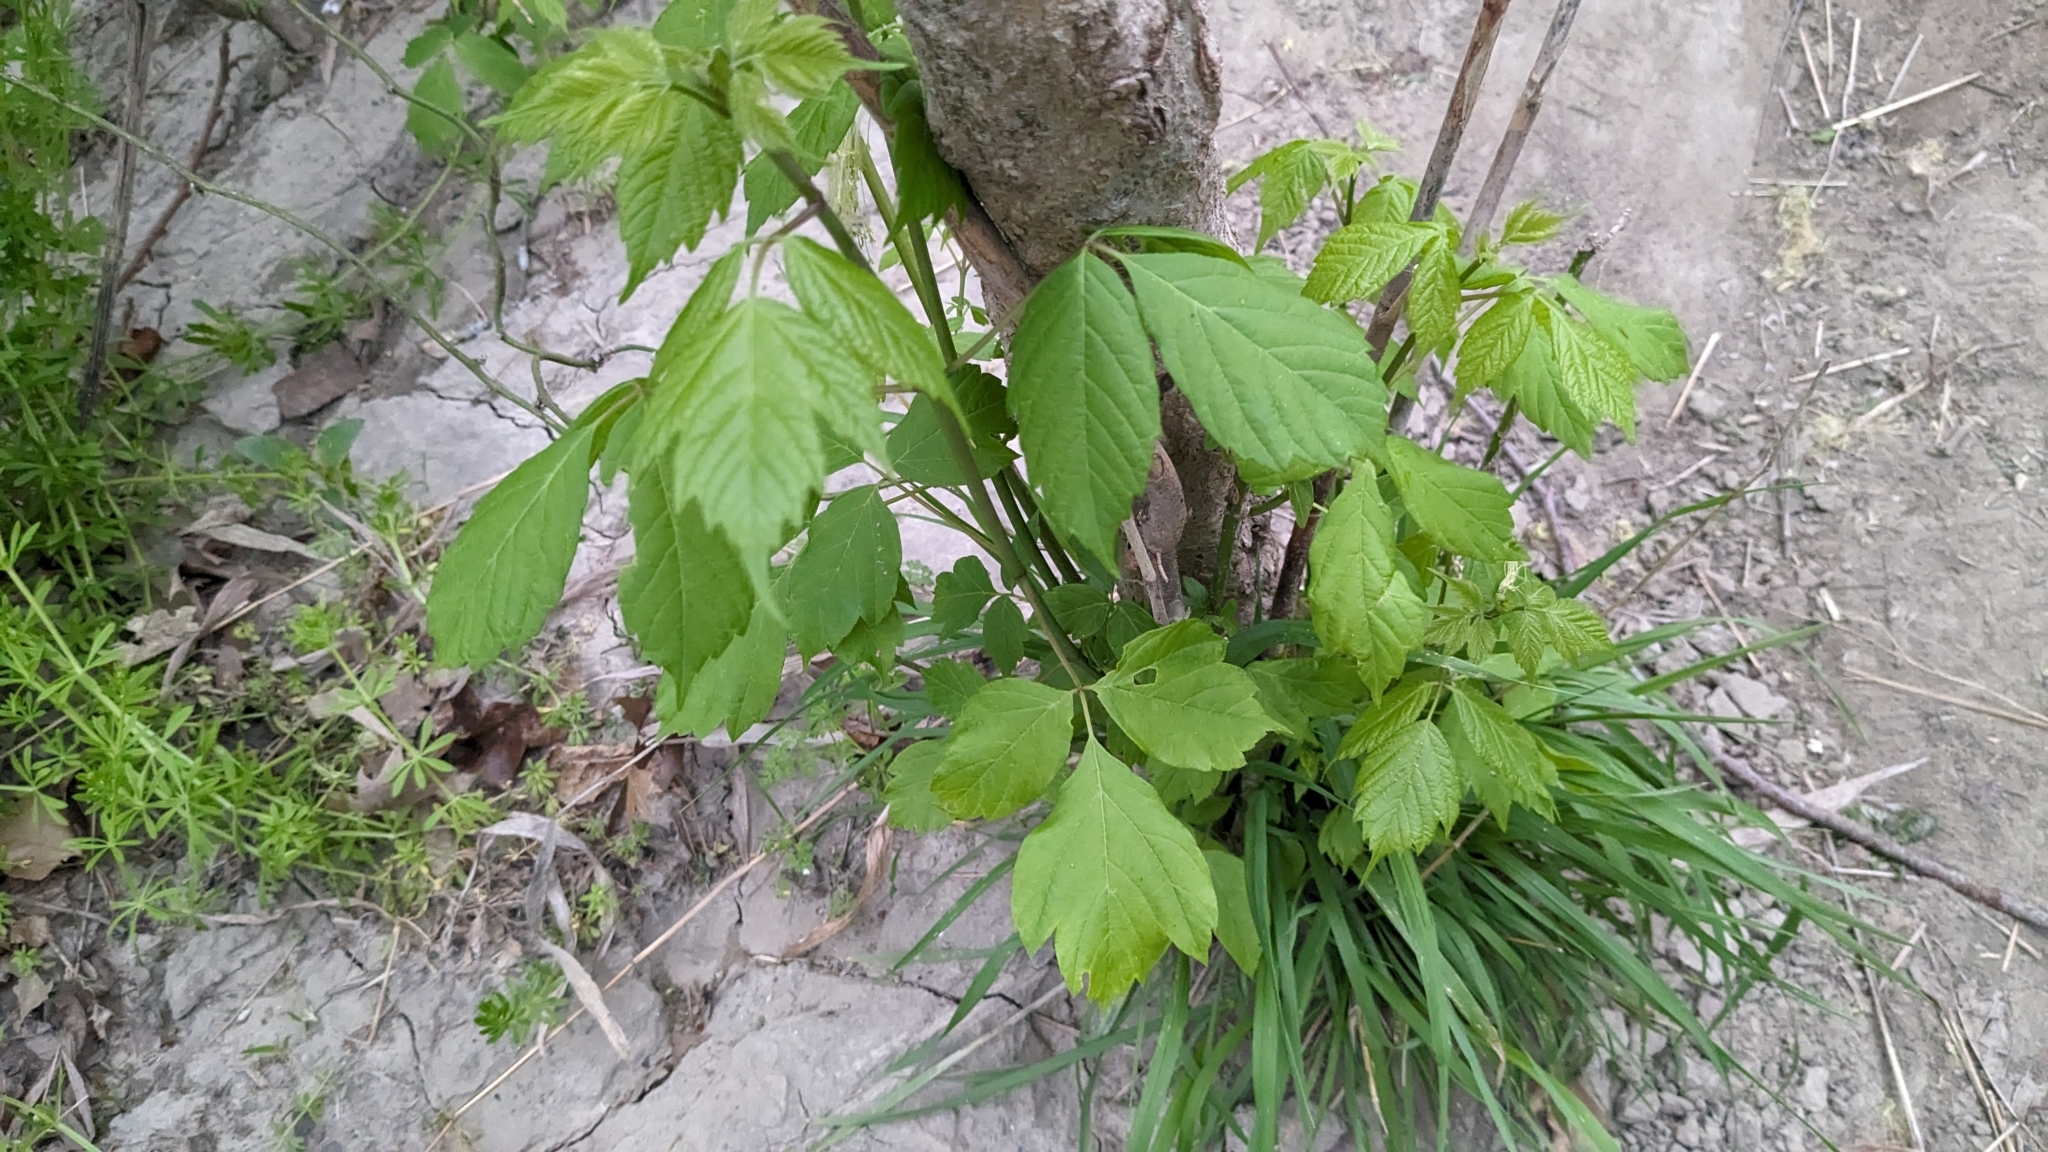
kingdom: Plantae
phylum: Tracheophyta
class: Magnoliopsida
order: Sapindales
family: Sapindaceae
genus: Acer
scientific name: Acer negundo
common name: Ashleaf maple
